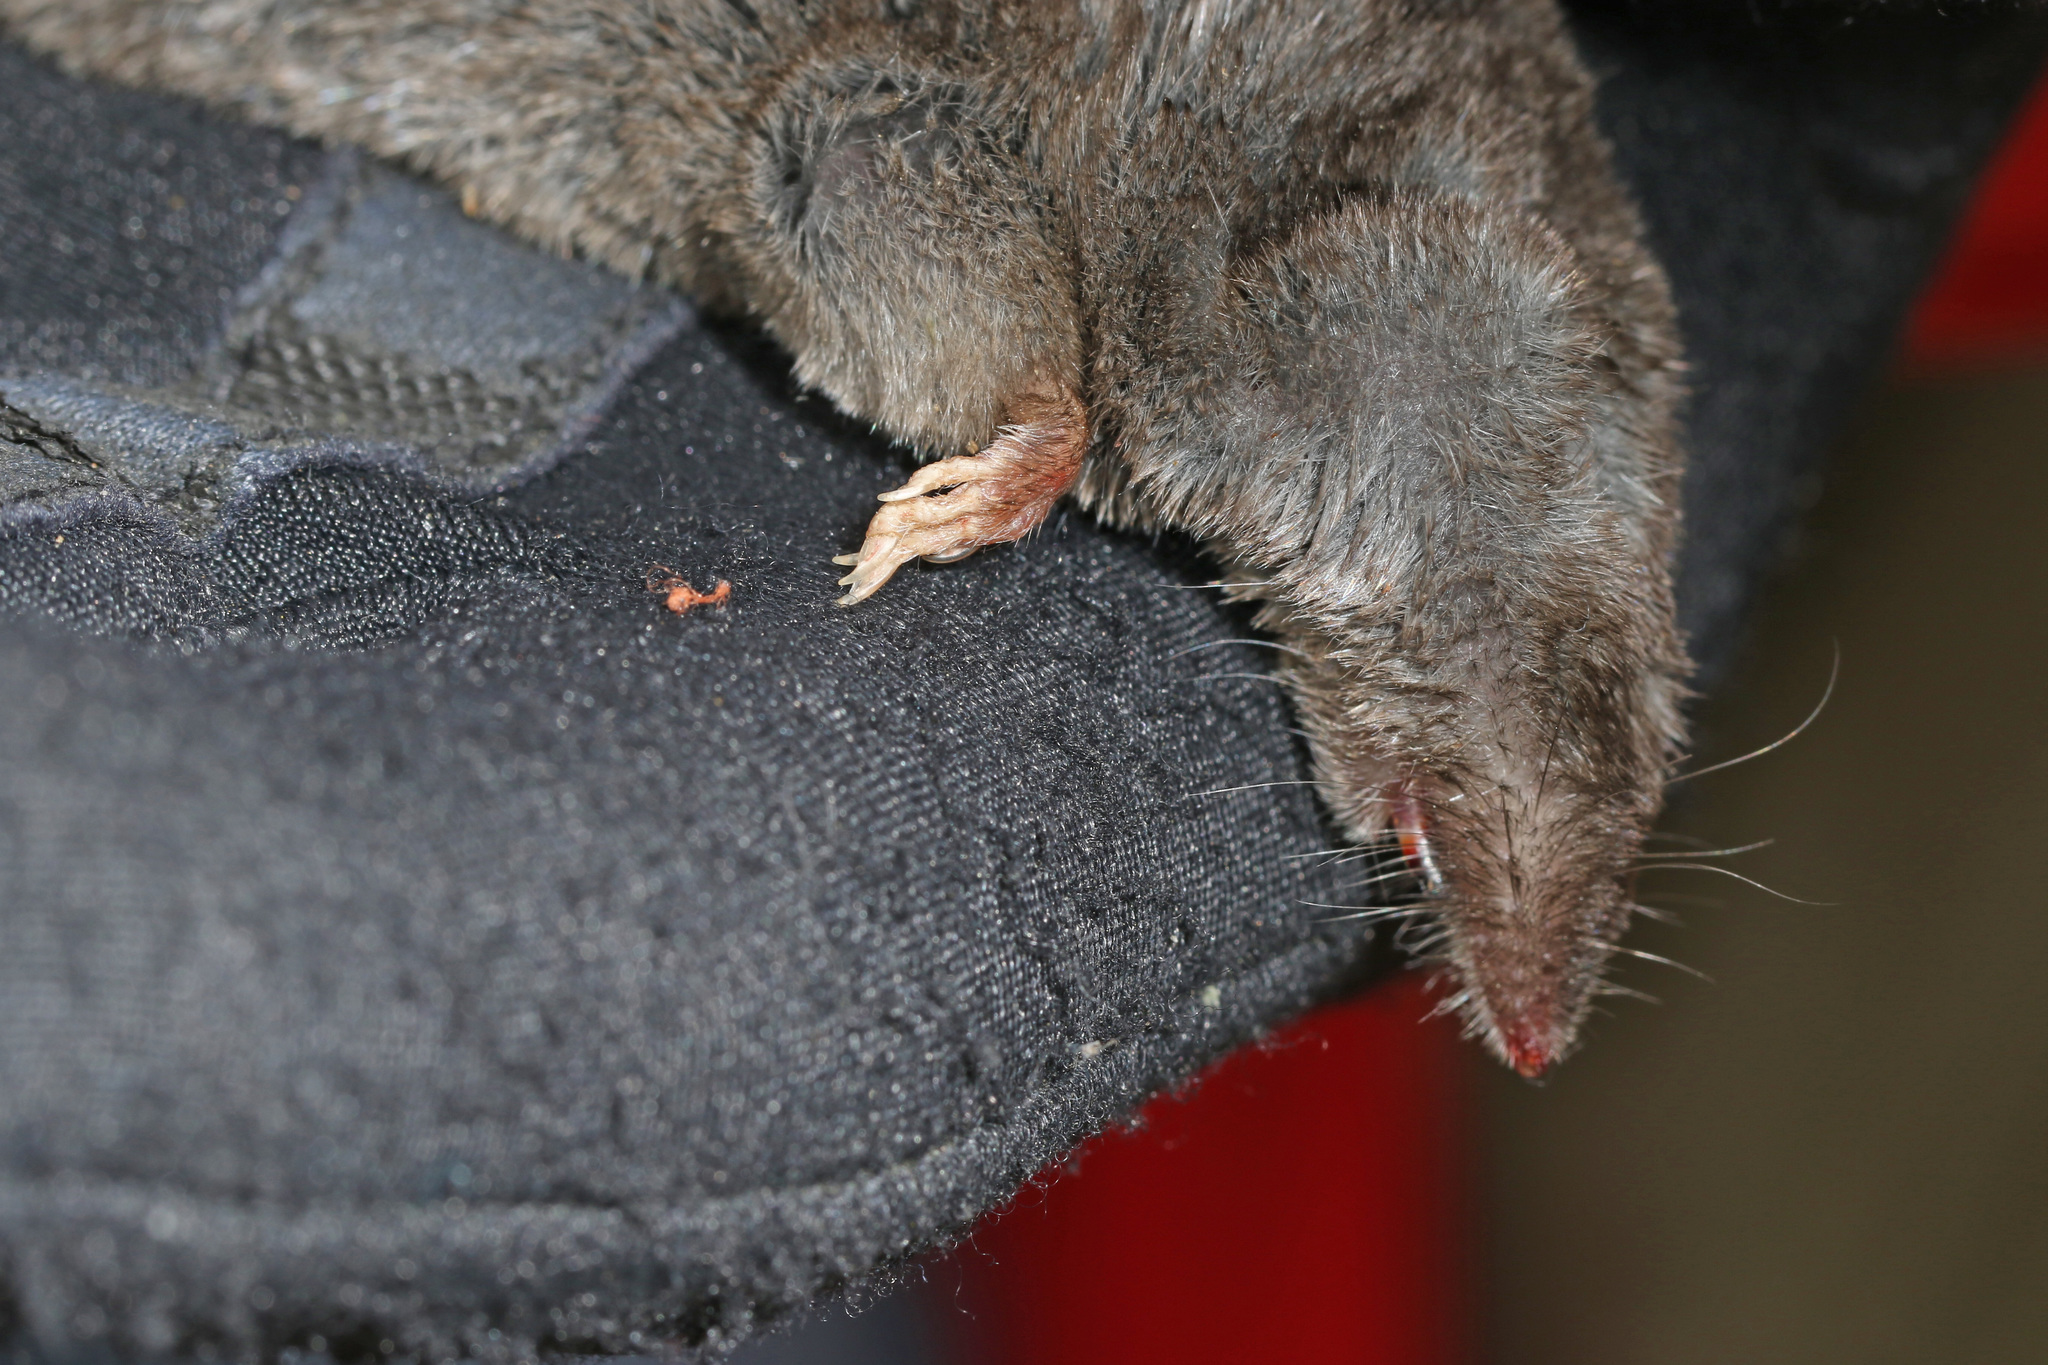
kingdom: Animalia
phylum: Chordata
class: Mammalia
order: Soricomorpha
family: Soricidae
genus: Cryptotis
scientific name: Cryptotis parva
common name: North american least shrew
